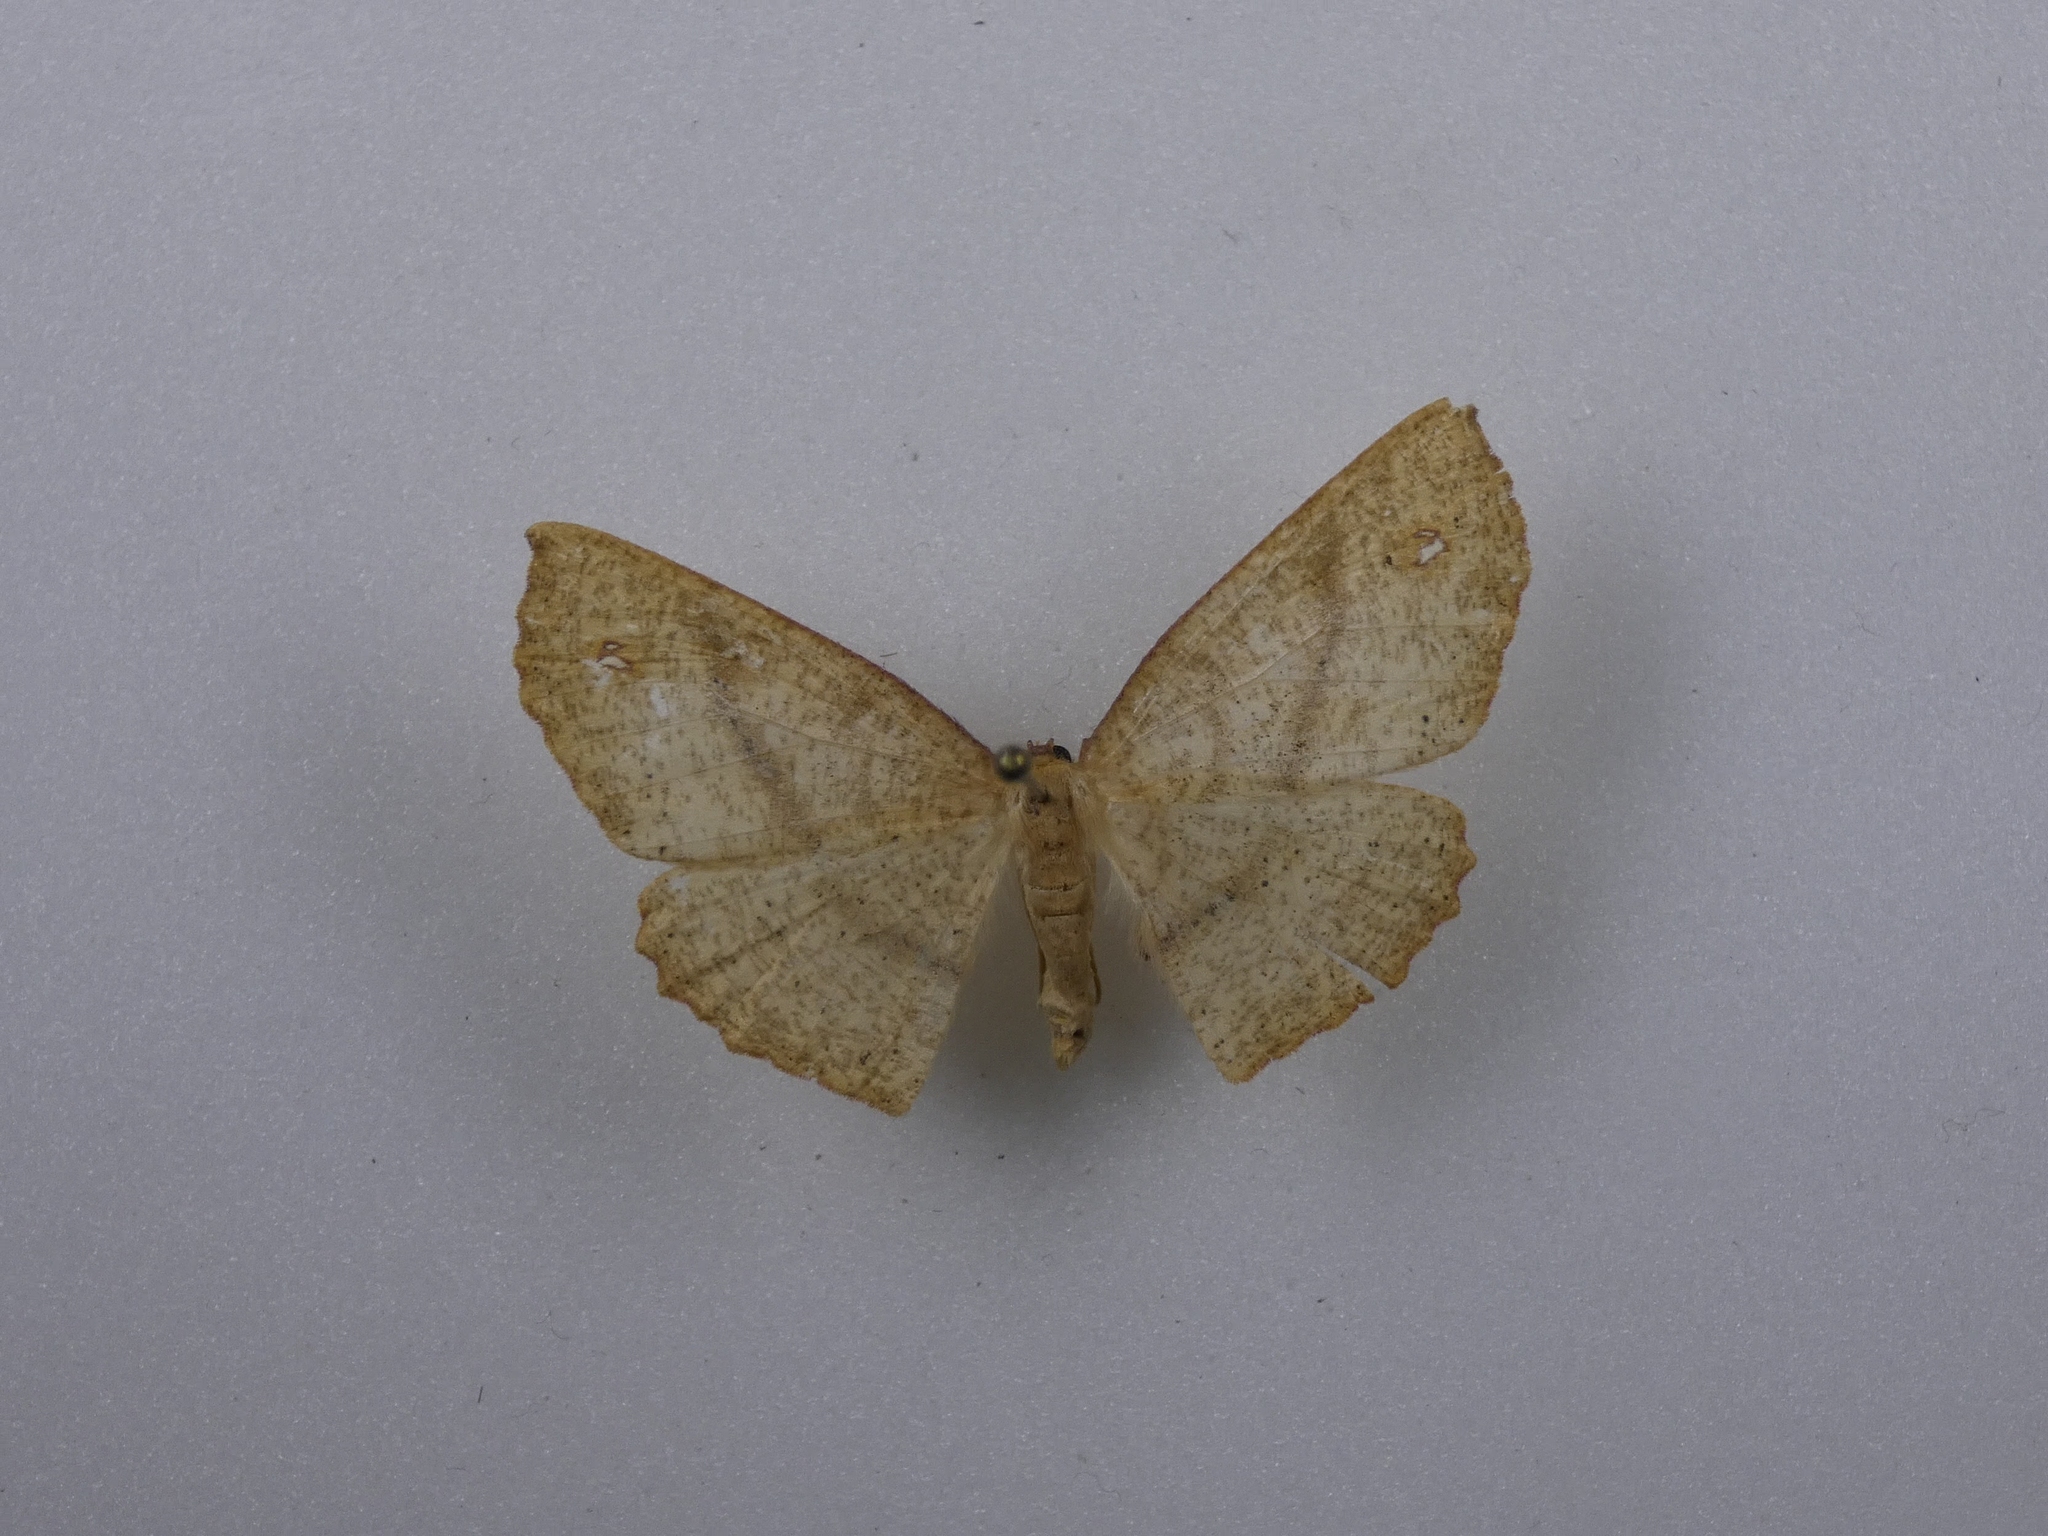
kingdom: Animalia
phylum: Arthropoda
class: Insecta
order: Lepidoptera
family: Geometridae
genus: Xyridacma
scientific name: Xyridacma alectoraria
